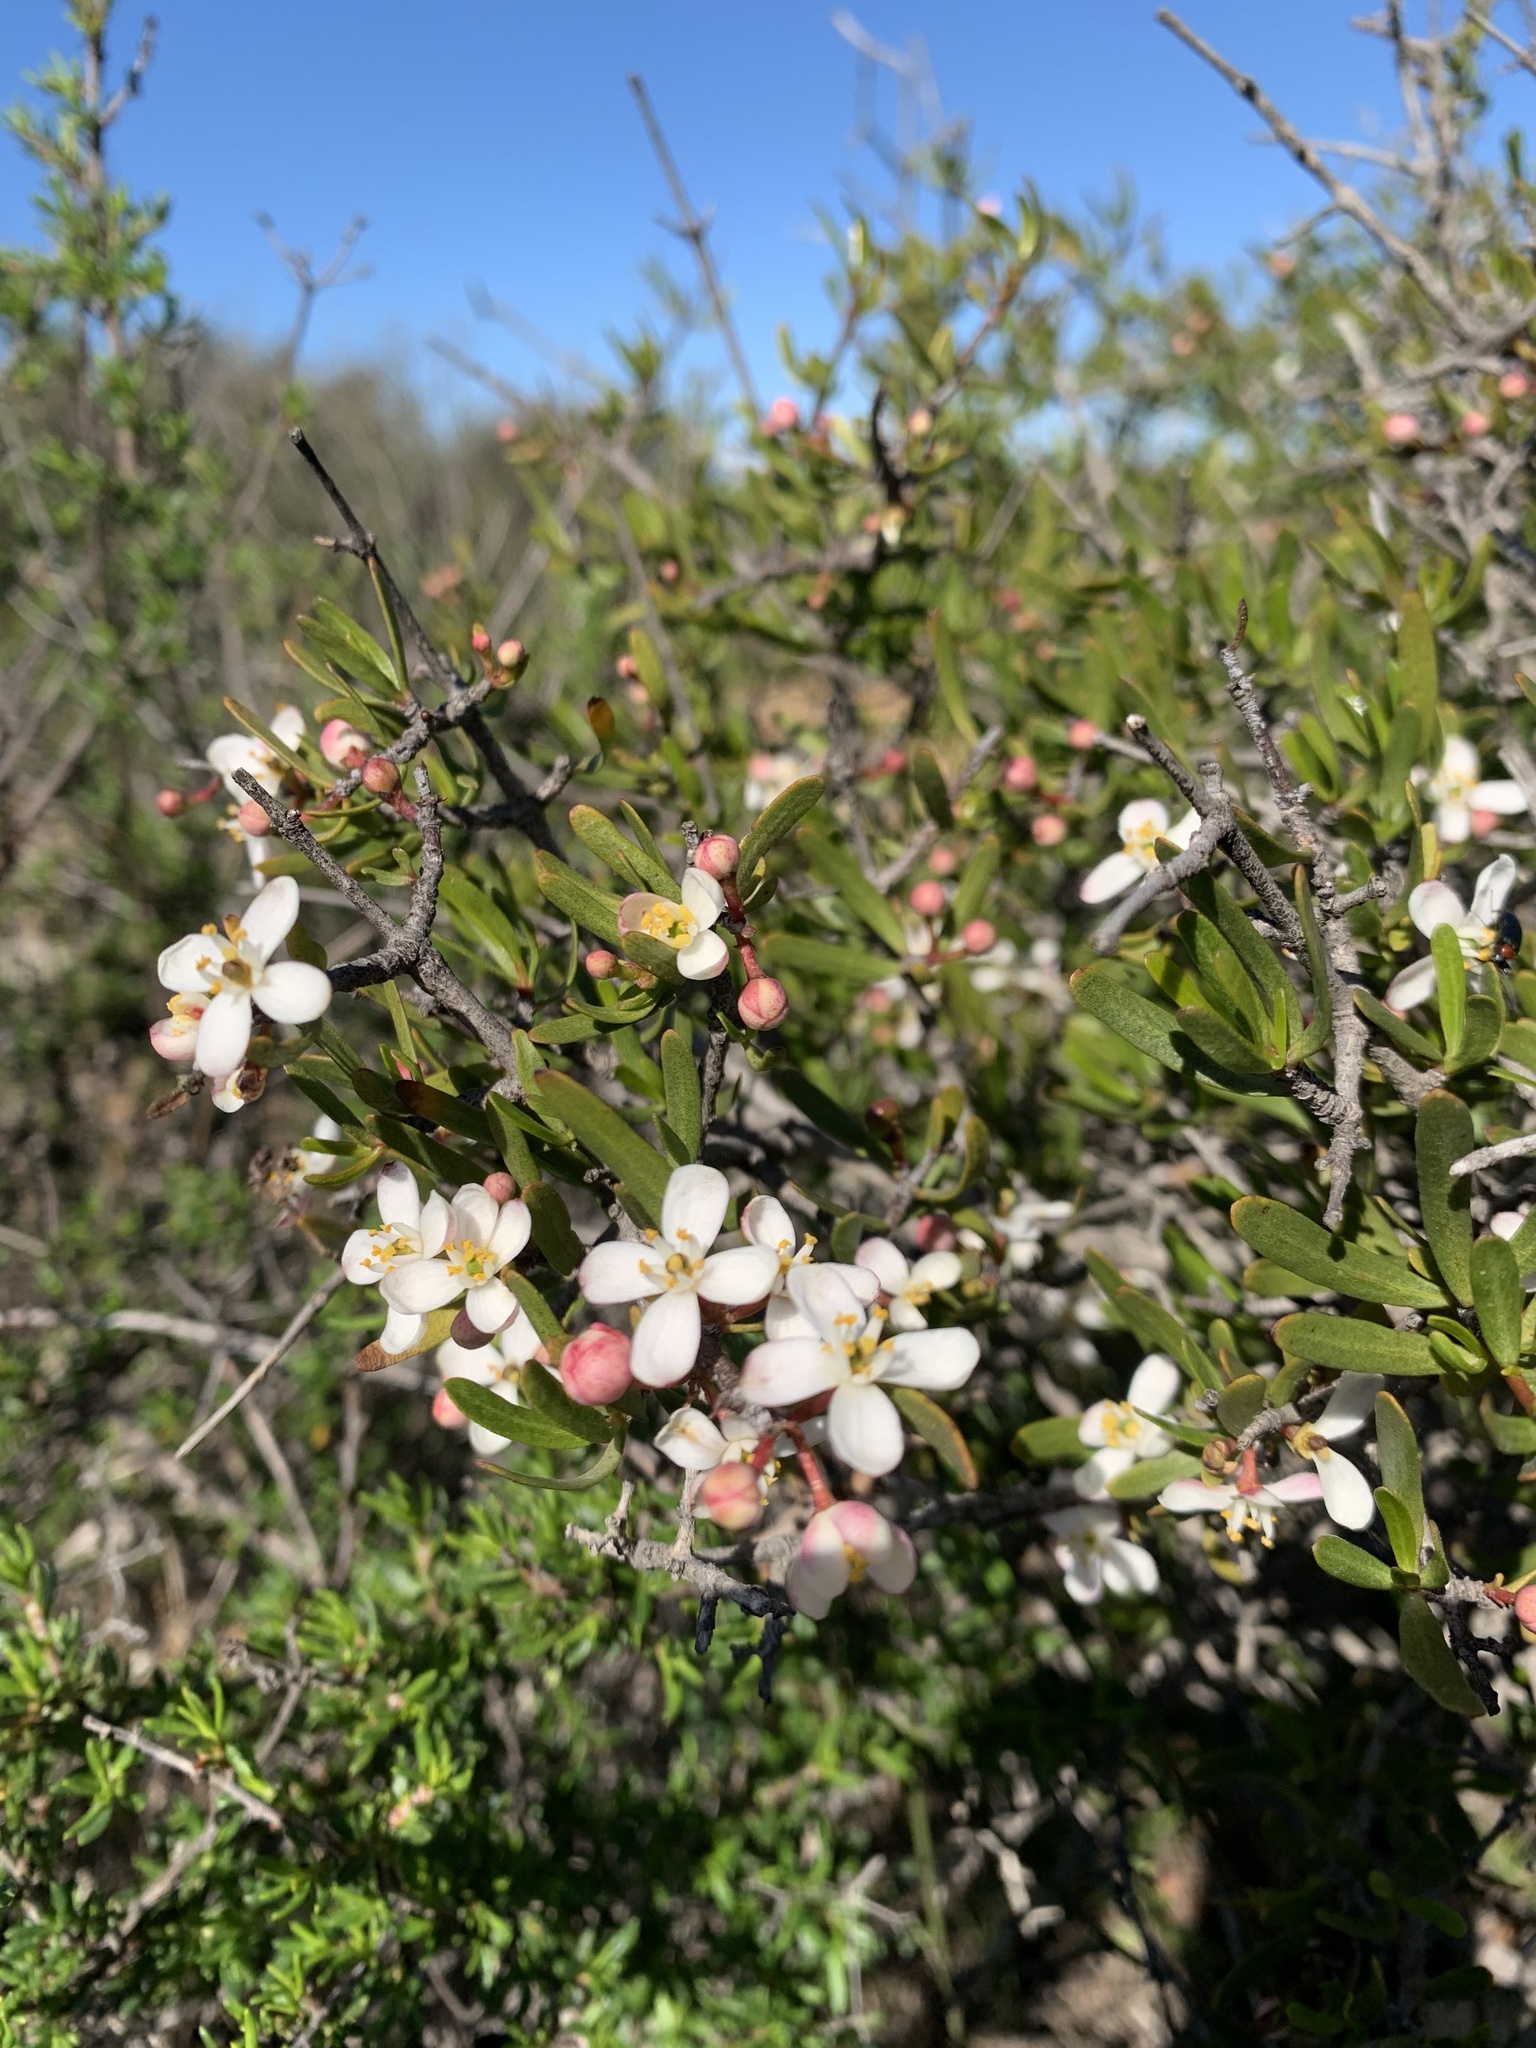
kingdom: Plantae
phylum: Tracheophyta
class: Magnoliopsida
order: Sapindales
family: Rutaceae
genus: Cneoridium
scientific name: Cneoridium dumosum
